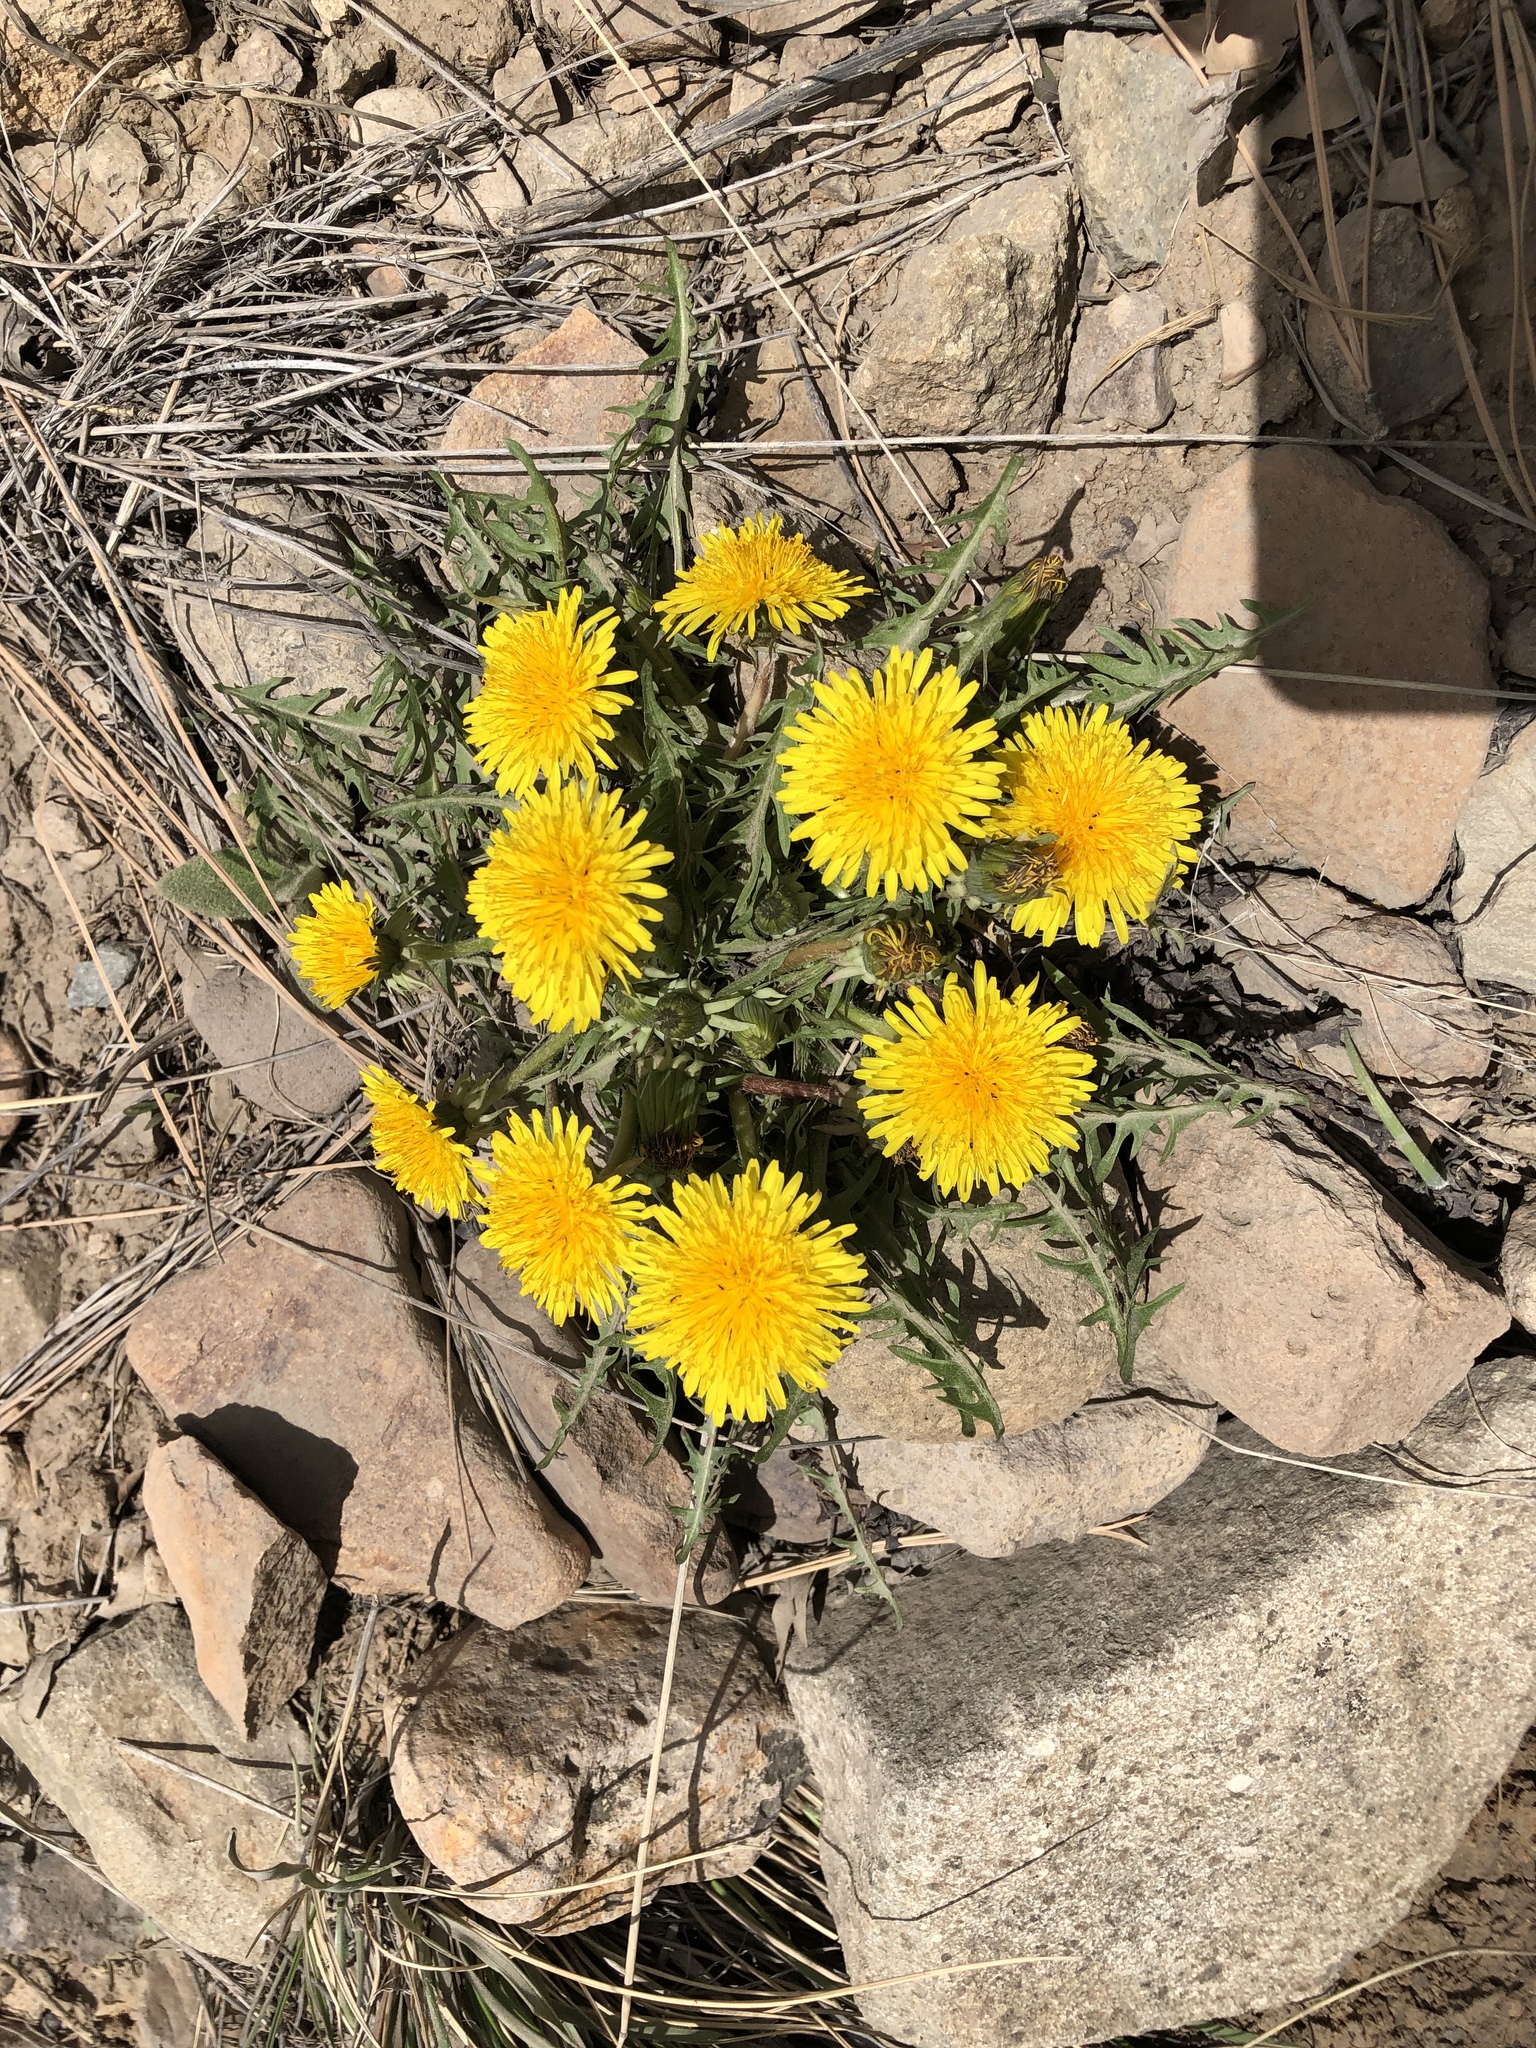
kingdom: Plantae
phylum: Tracheophyta
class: Magnoliopsida
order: Asterales
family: Asteraceae
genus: Taraxacum
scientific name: Taraxacum officinale
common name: Common dandelion
